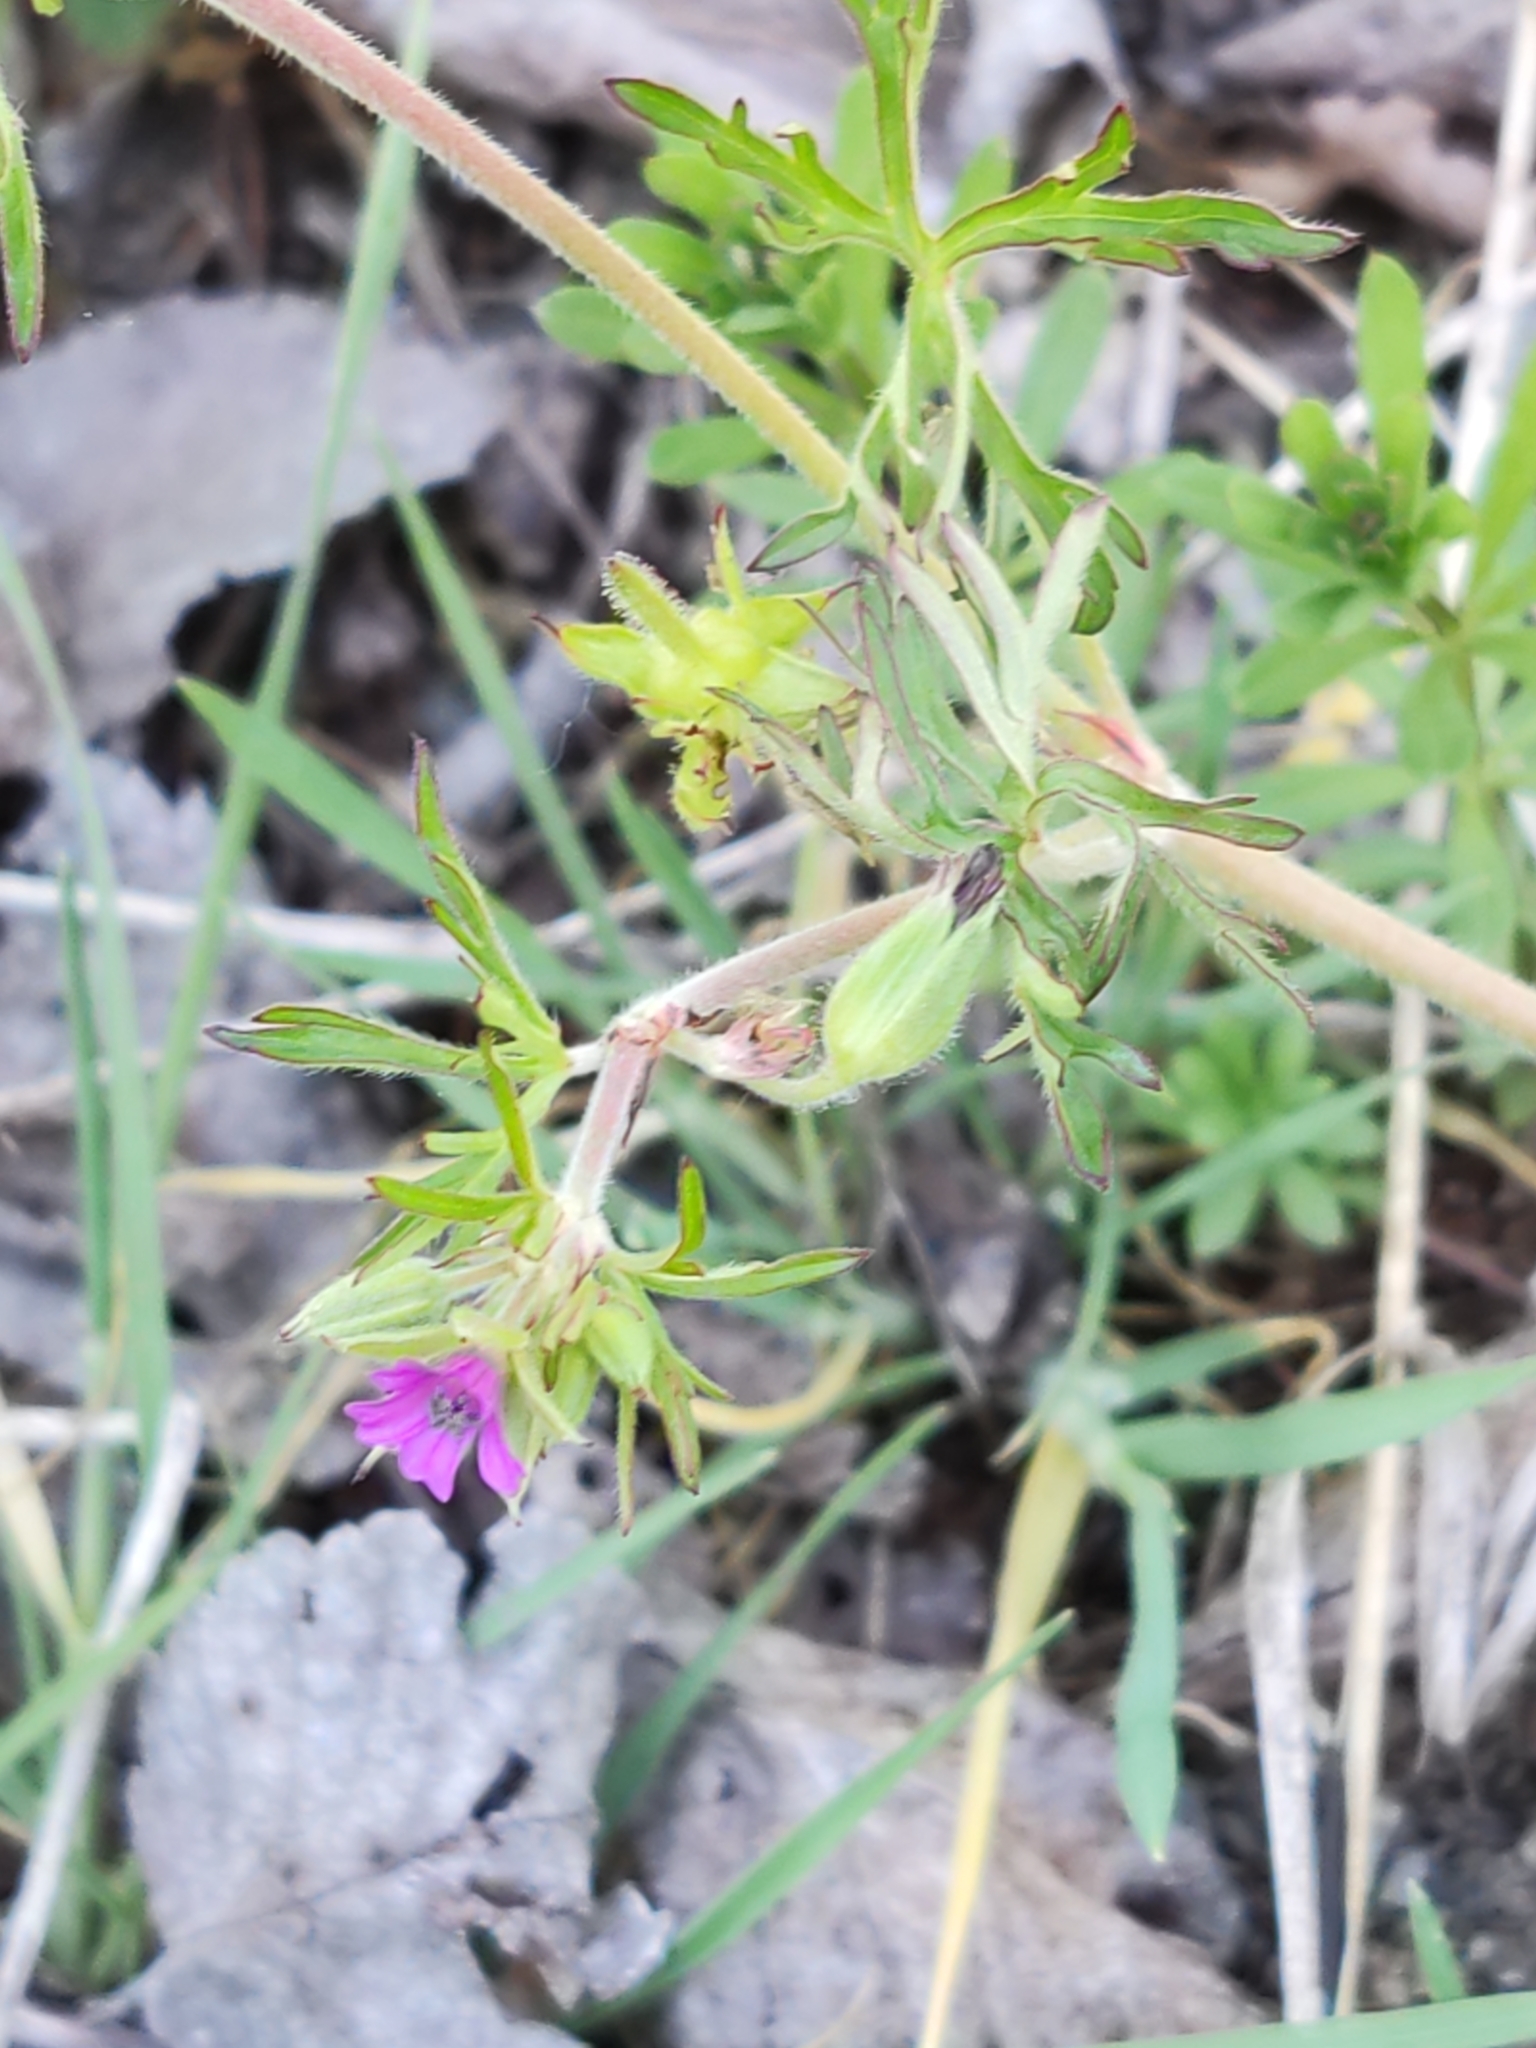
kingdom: Plantae
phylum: Tracheophyta
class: Magnoliopsida
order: Geraniales
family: Geraniaceae
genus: Geranium
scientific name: Geranium dissectum
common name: Cut-leaved crane's-bill
